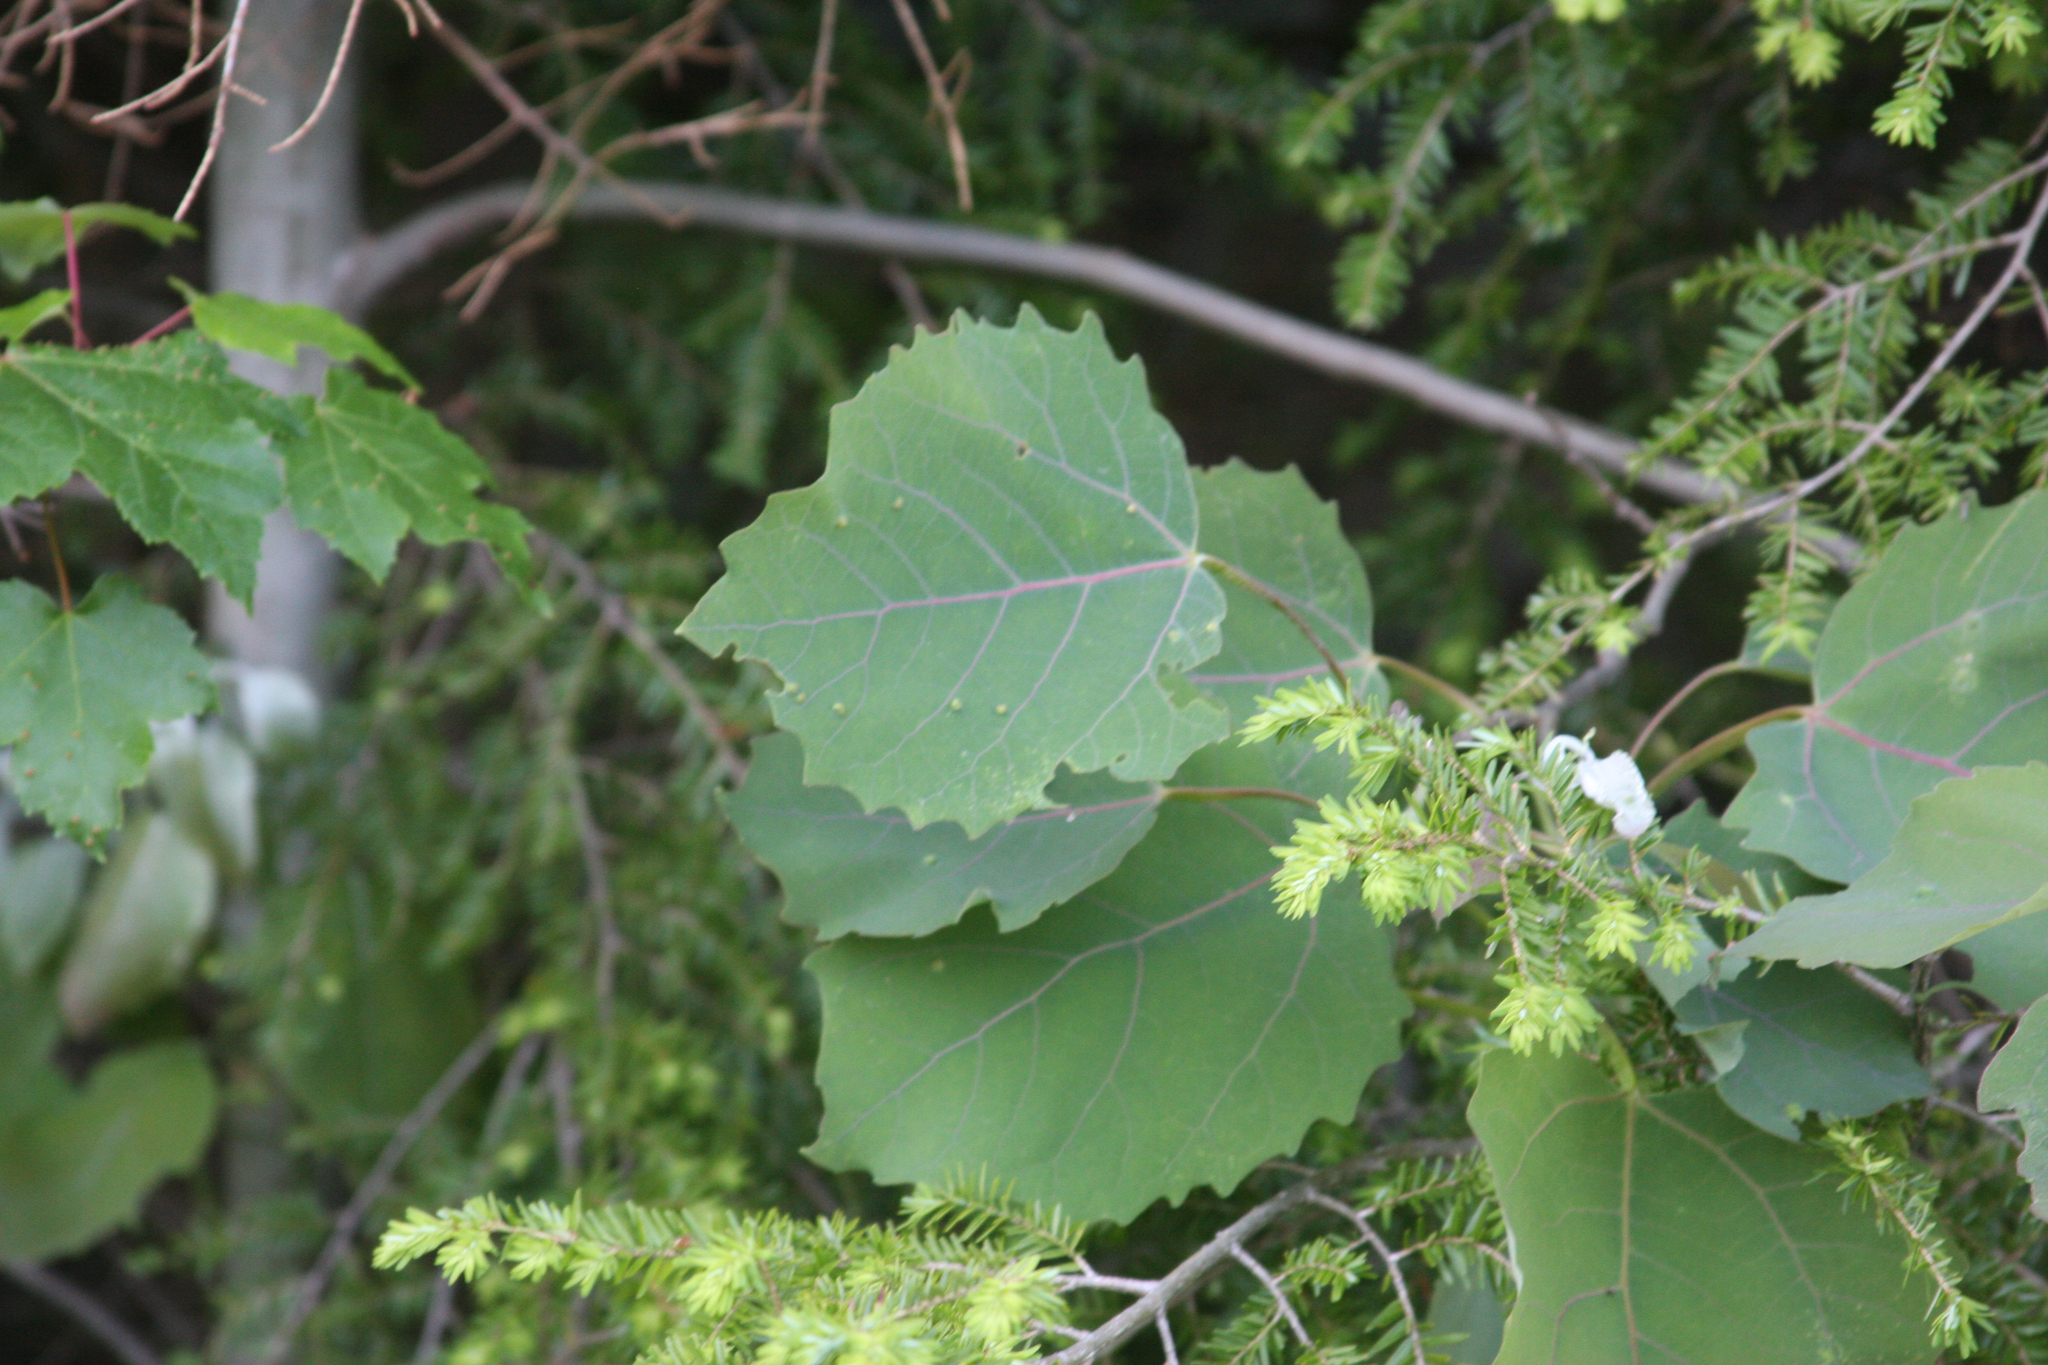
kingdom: Plantae
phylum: Tracheophyta
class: Magnoliopsida
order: Malpighiales
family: Salicaceae
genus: Populus
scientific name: Populus grandidentata
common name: Bigtooth aspen
